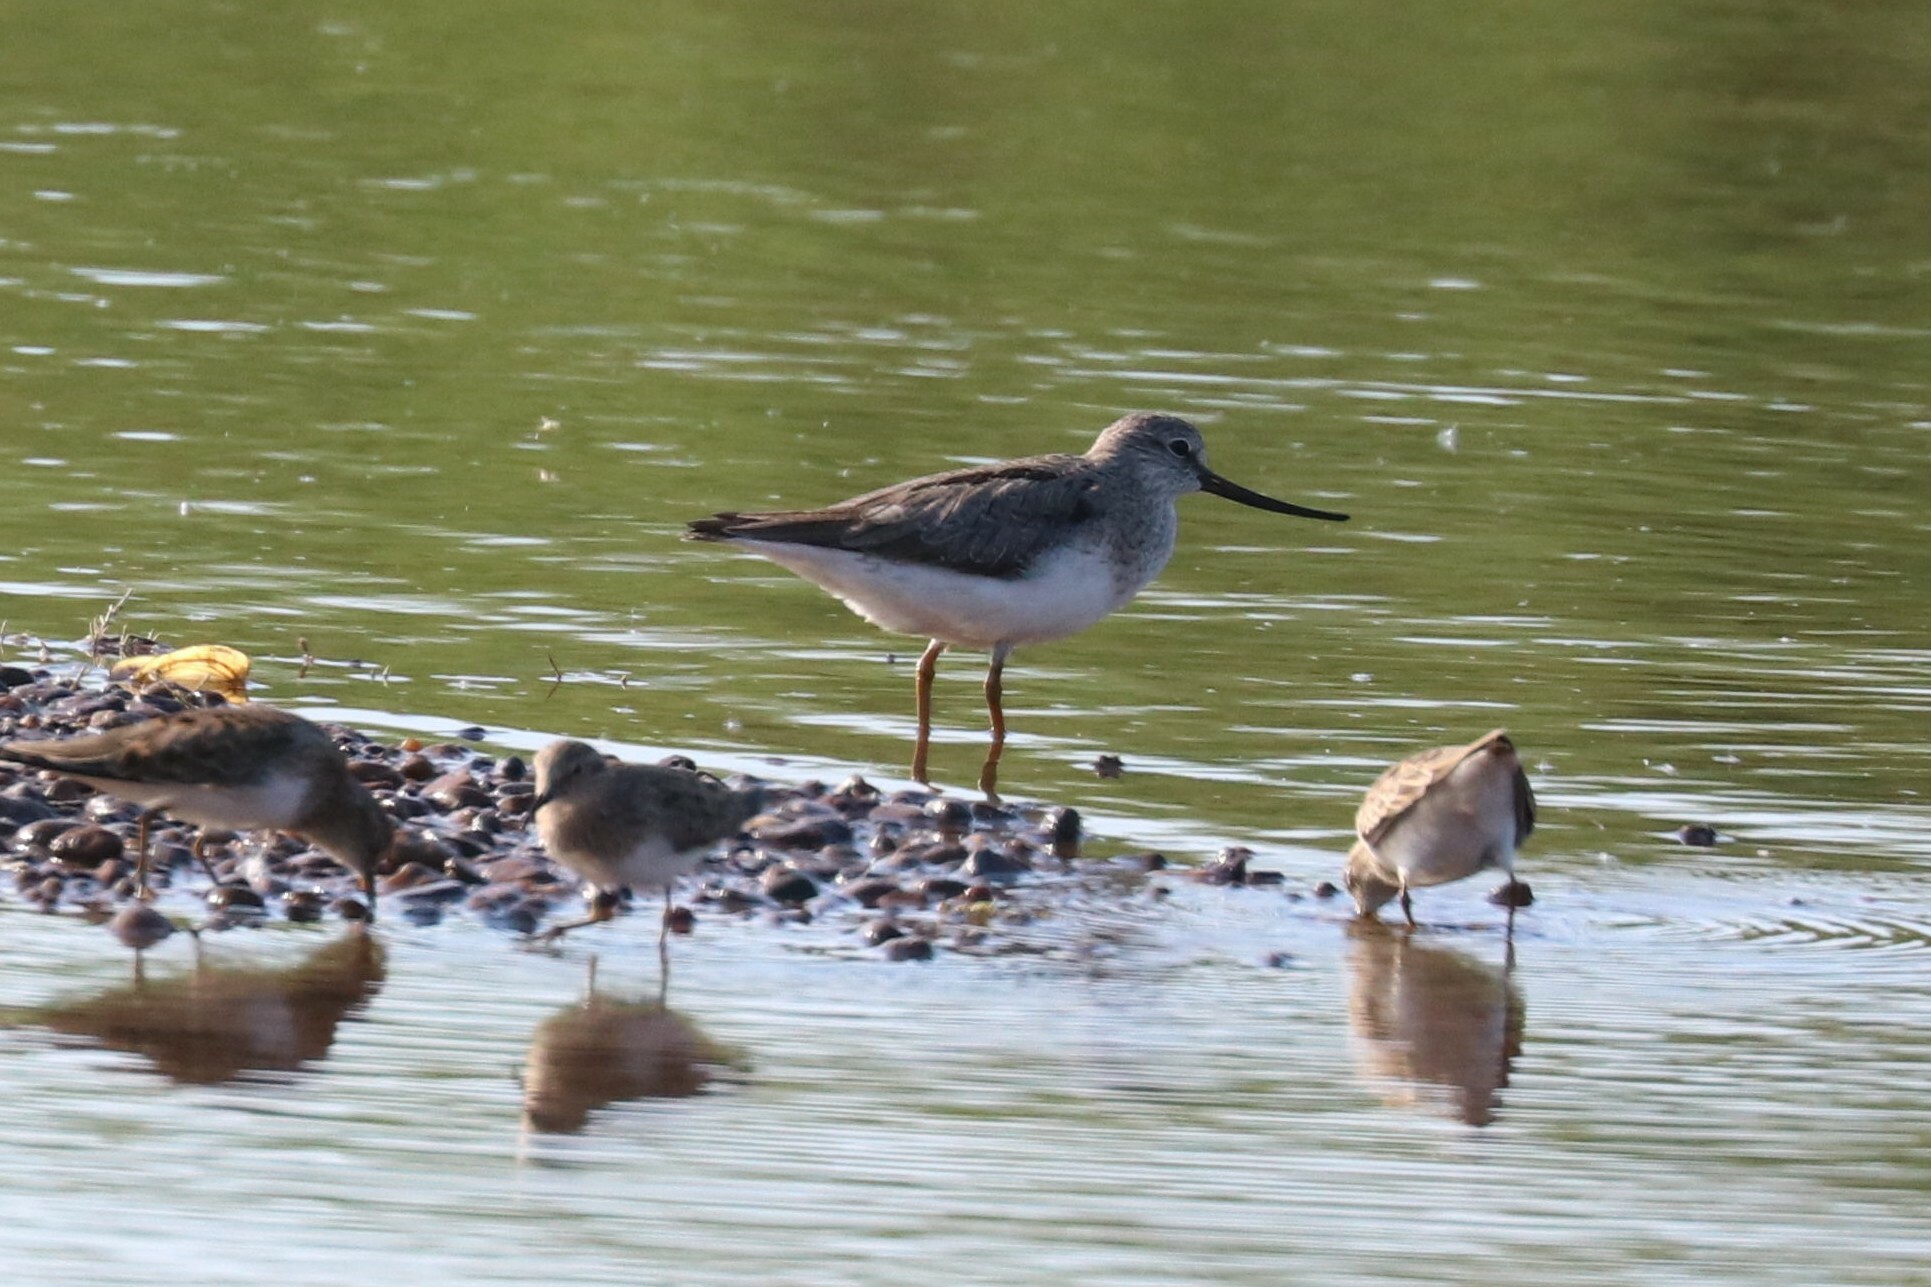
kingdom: Animalia
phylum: Chordata
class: Aves
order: Charadriiformes
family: Scolopacidae
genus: Xenus
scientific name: Xenus cinereus
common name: Terek sandpiper
